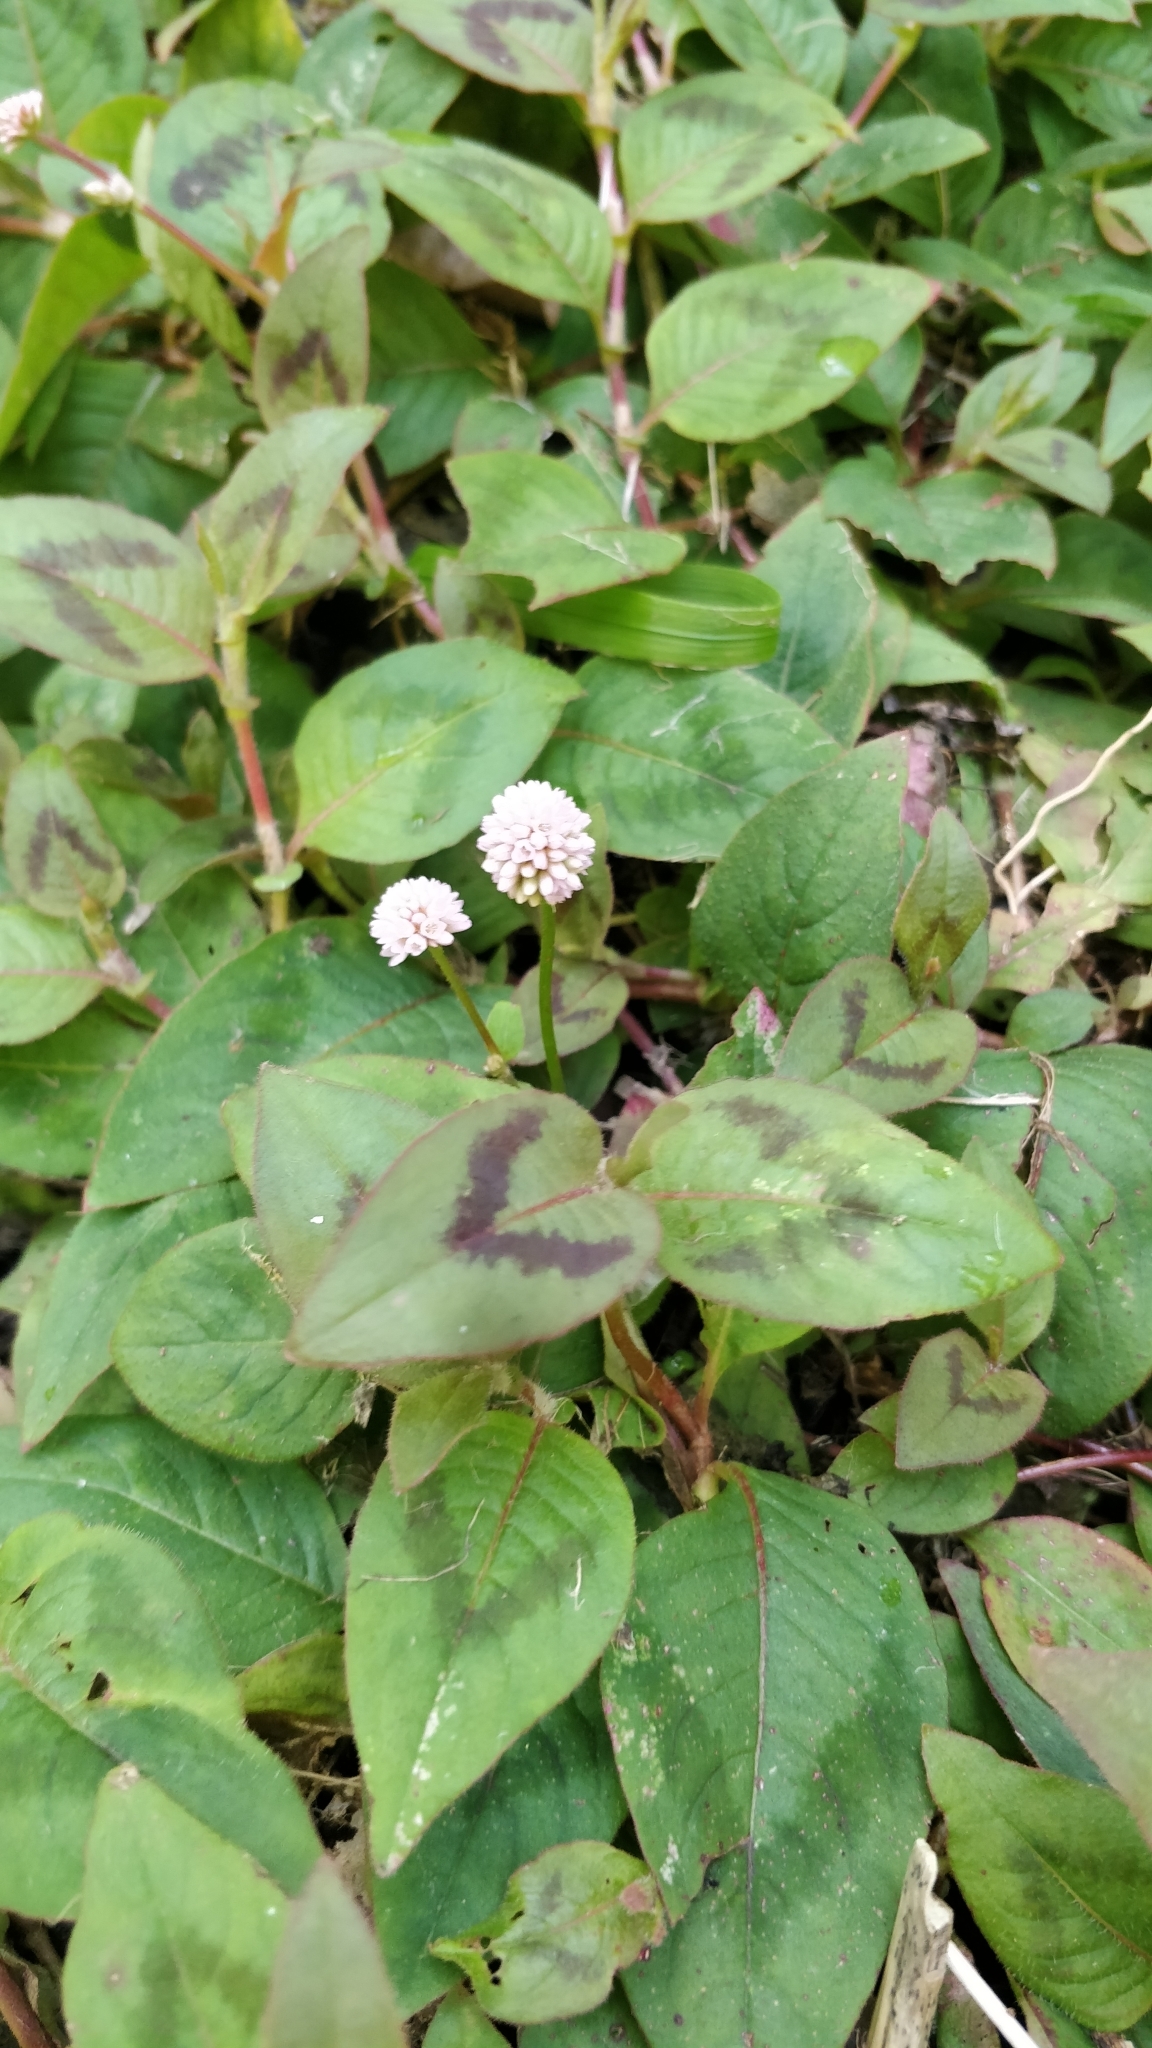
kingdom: Plantae
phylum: Tracheophyta
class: Magnoliopsida
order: Caryophyllales
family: Polygonaceae
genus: Persicaria
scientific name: Persicaria capitata
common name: Pinkhead smartweed
